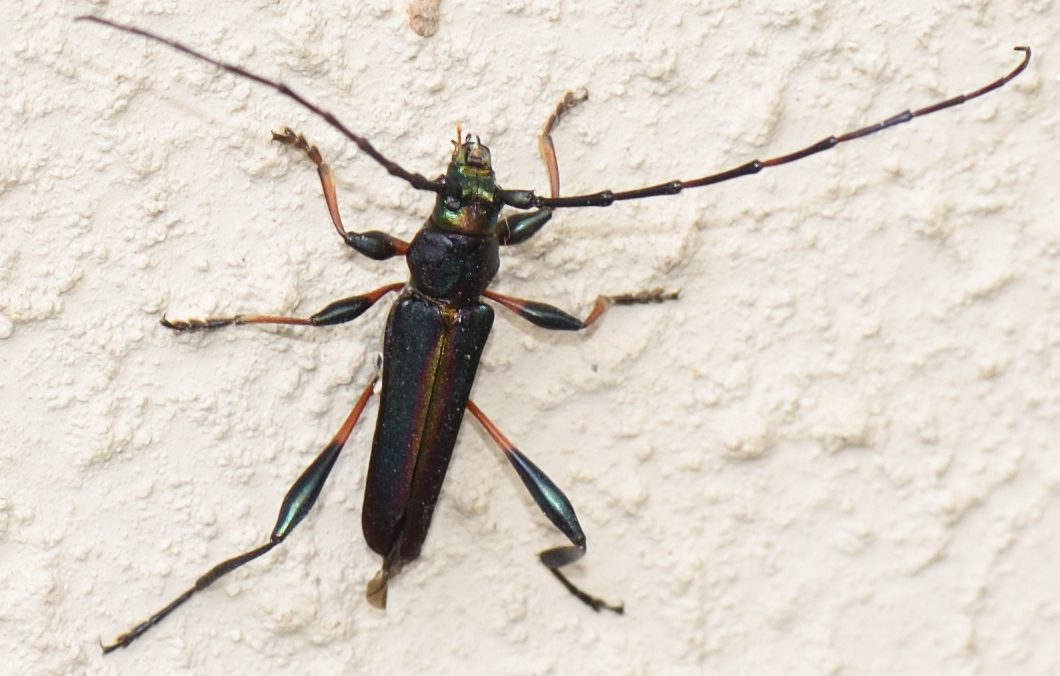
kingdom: Animalia
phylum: Arthropoda
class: Insecta
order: Coleoptera
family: Cerambycidae
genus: Litopus
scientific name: Litopus latipes
